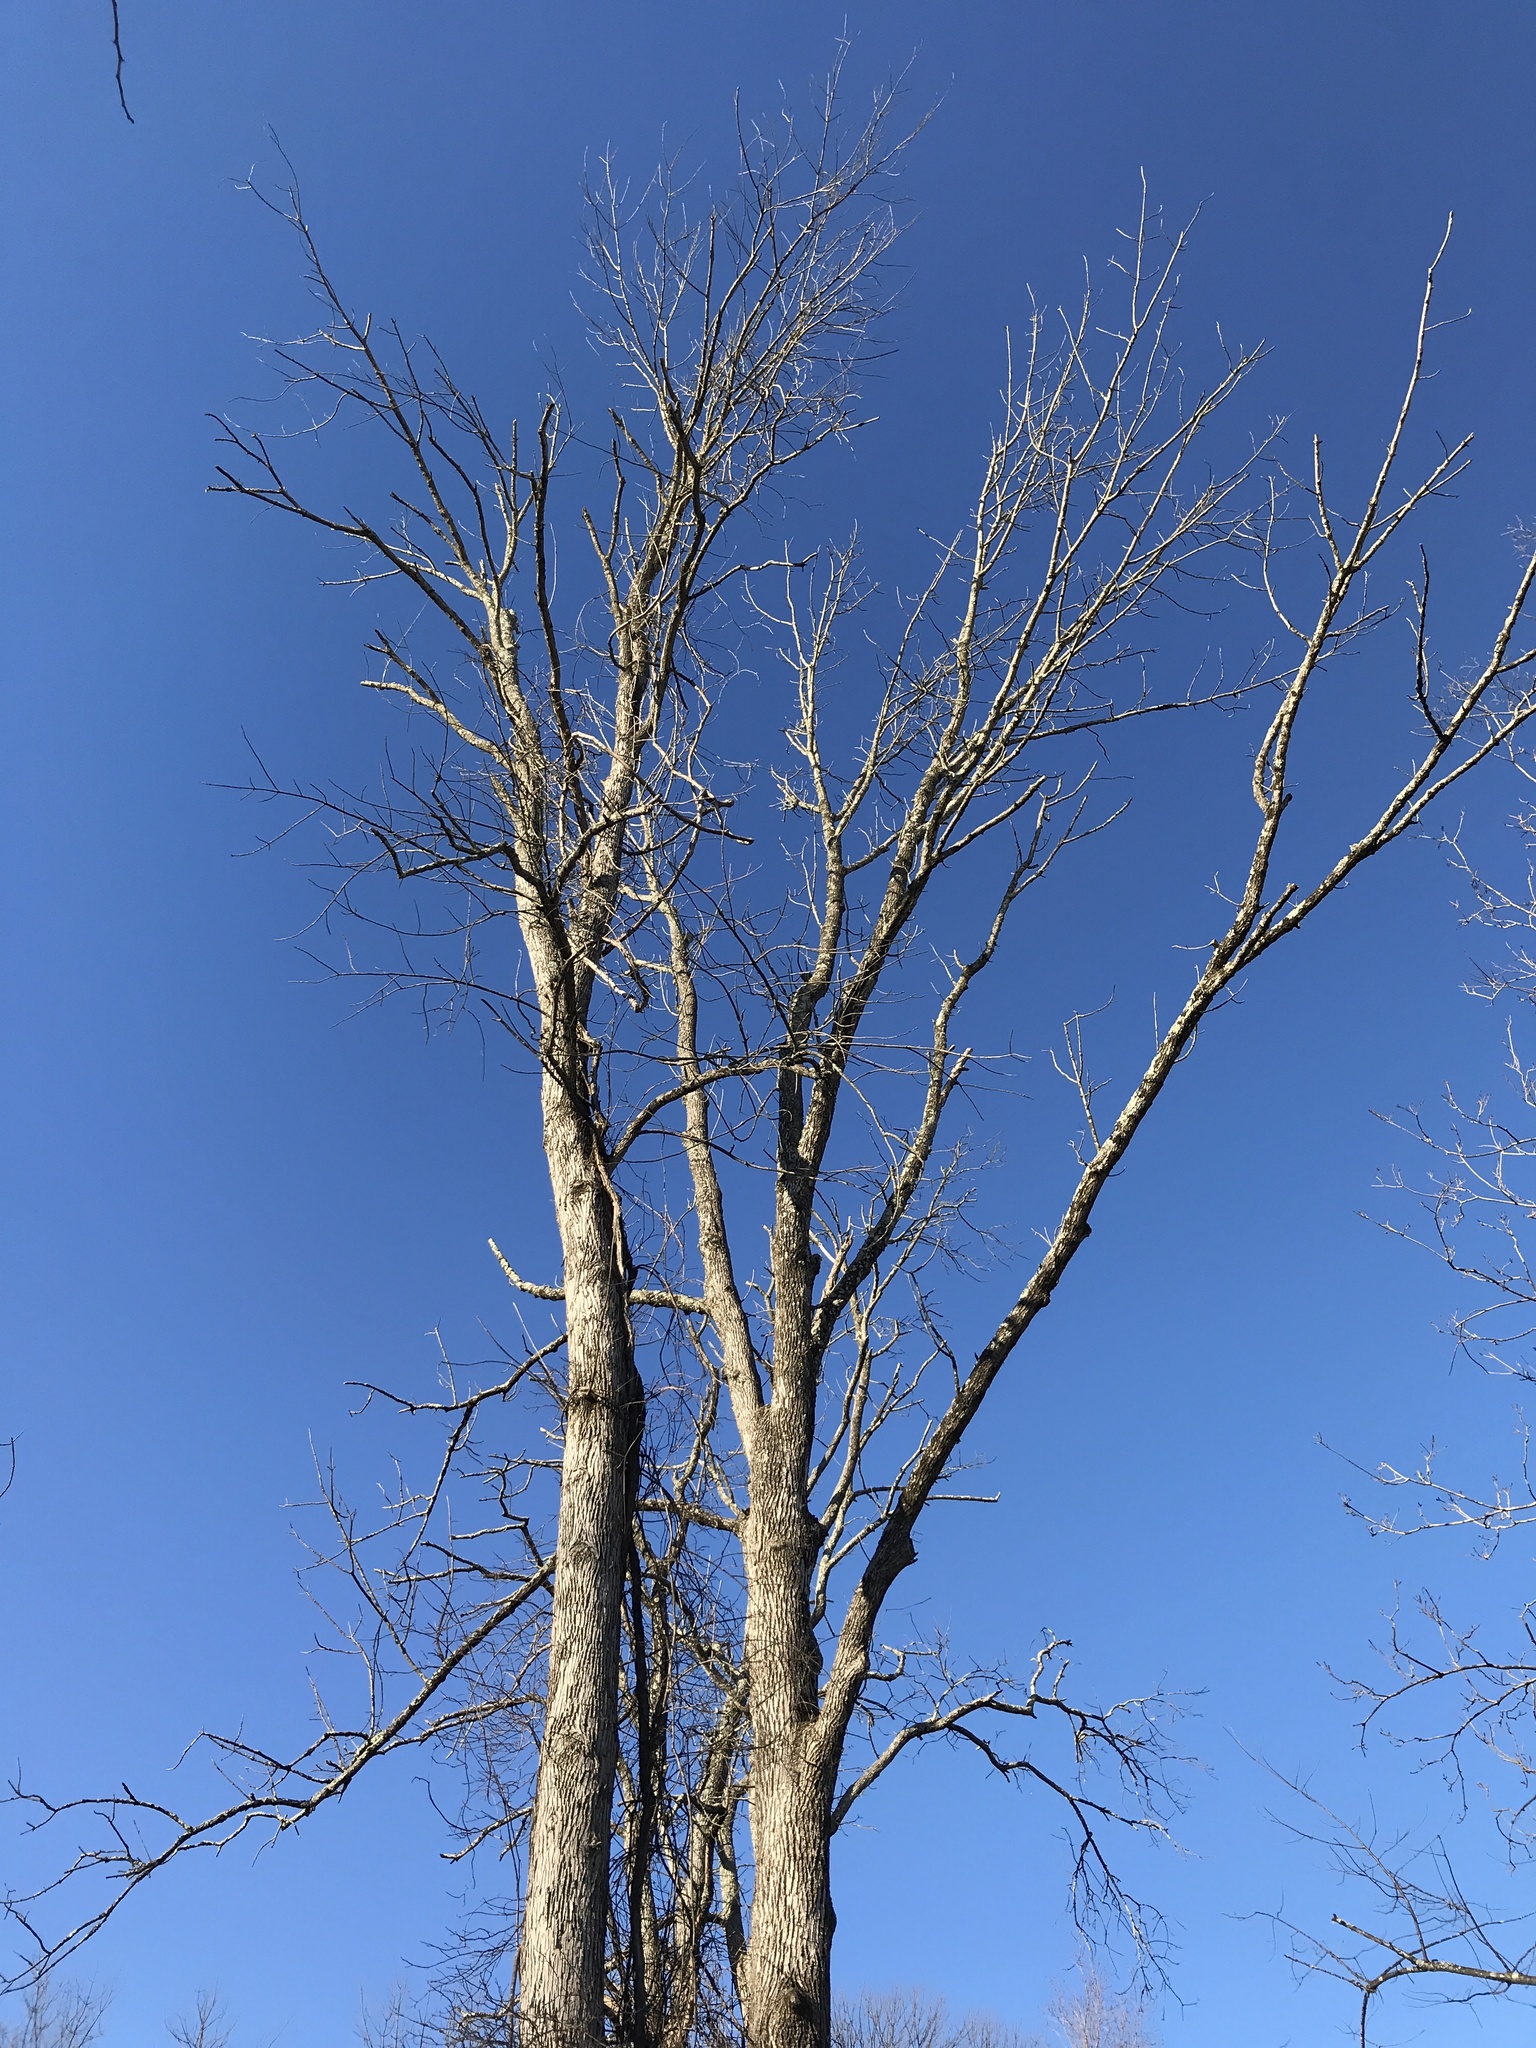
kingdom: Animalia
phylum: Arthropoda
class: Insecta
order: Coleoptera
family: Buprestidae
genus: Agrilus
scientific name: Agrilus planipennis
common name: Emerald ash borer
